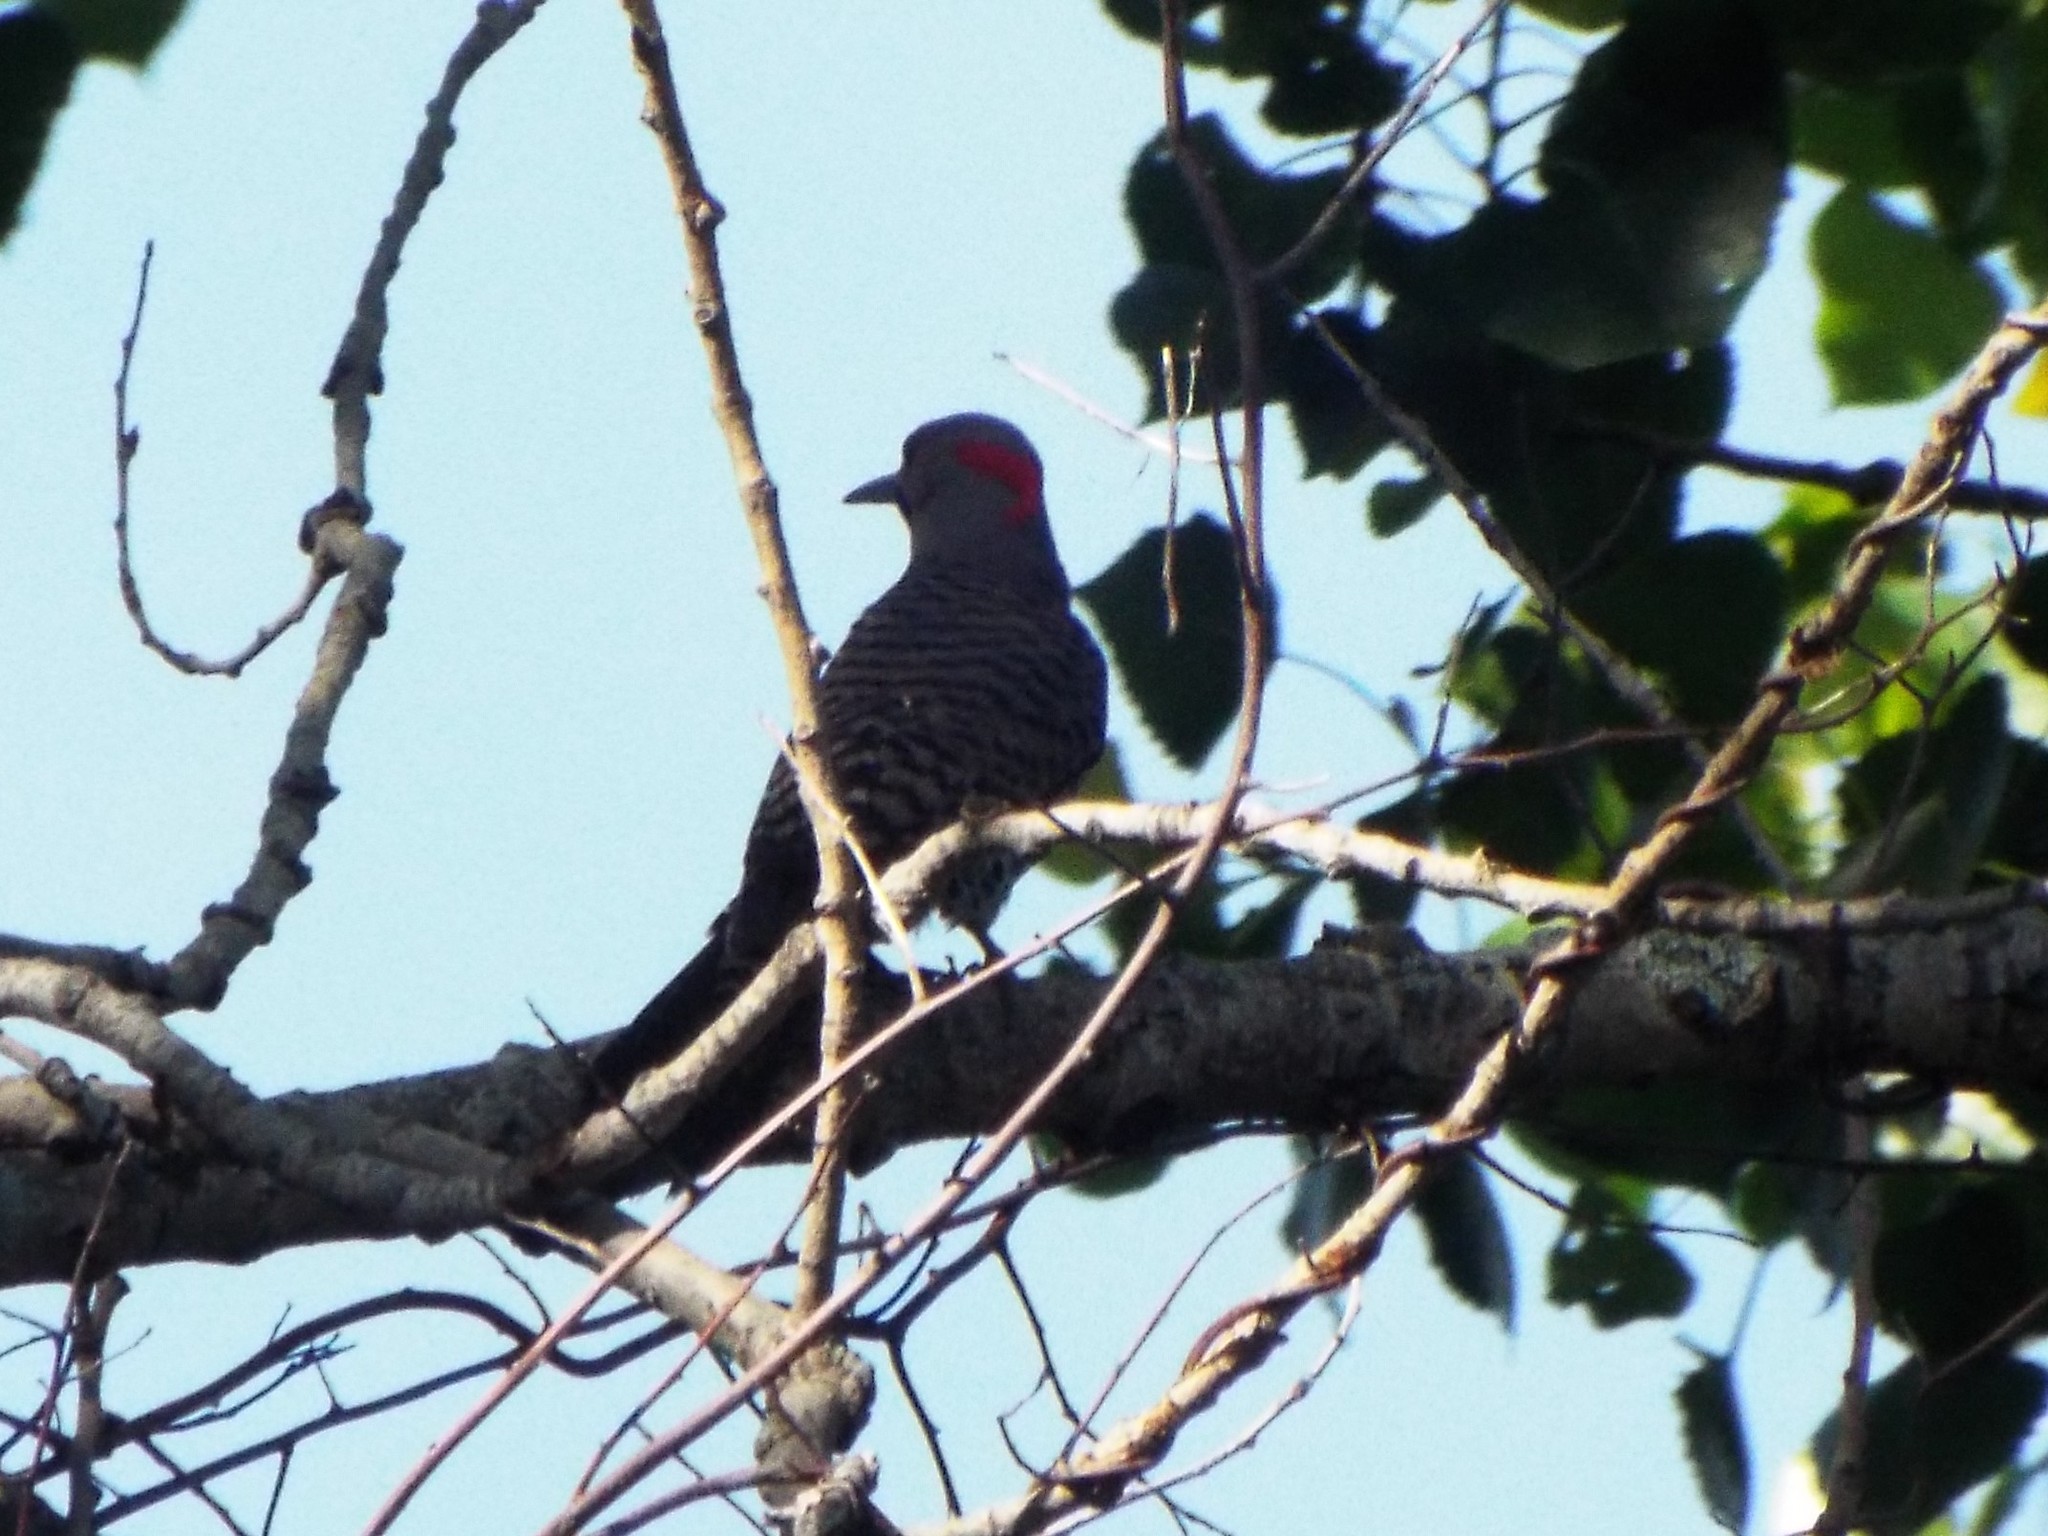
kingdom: Animalia
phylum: Chordata
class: Aves
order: Piciformes
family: Picidae
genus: Colaptes
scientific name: Colaptes auratus
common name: Northern flicker
